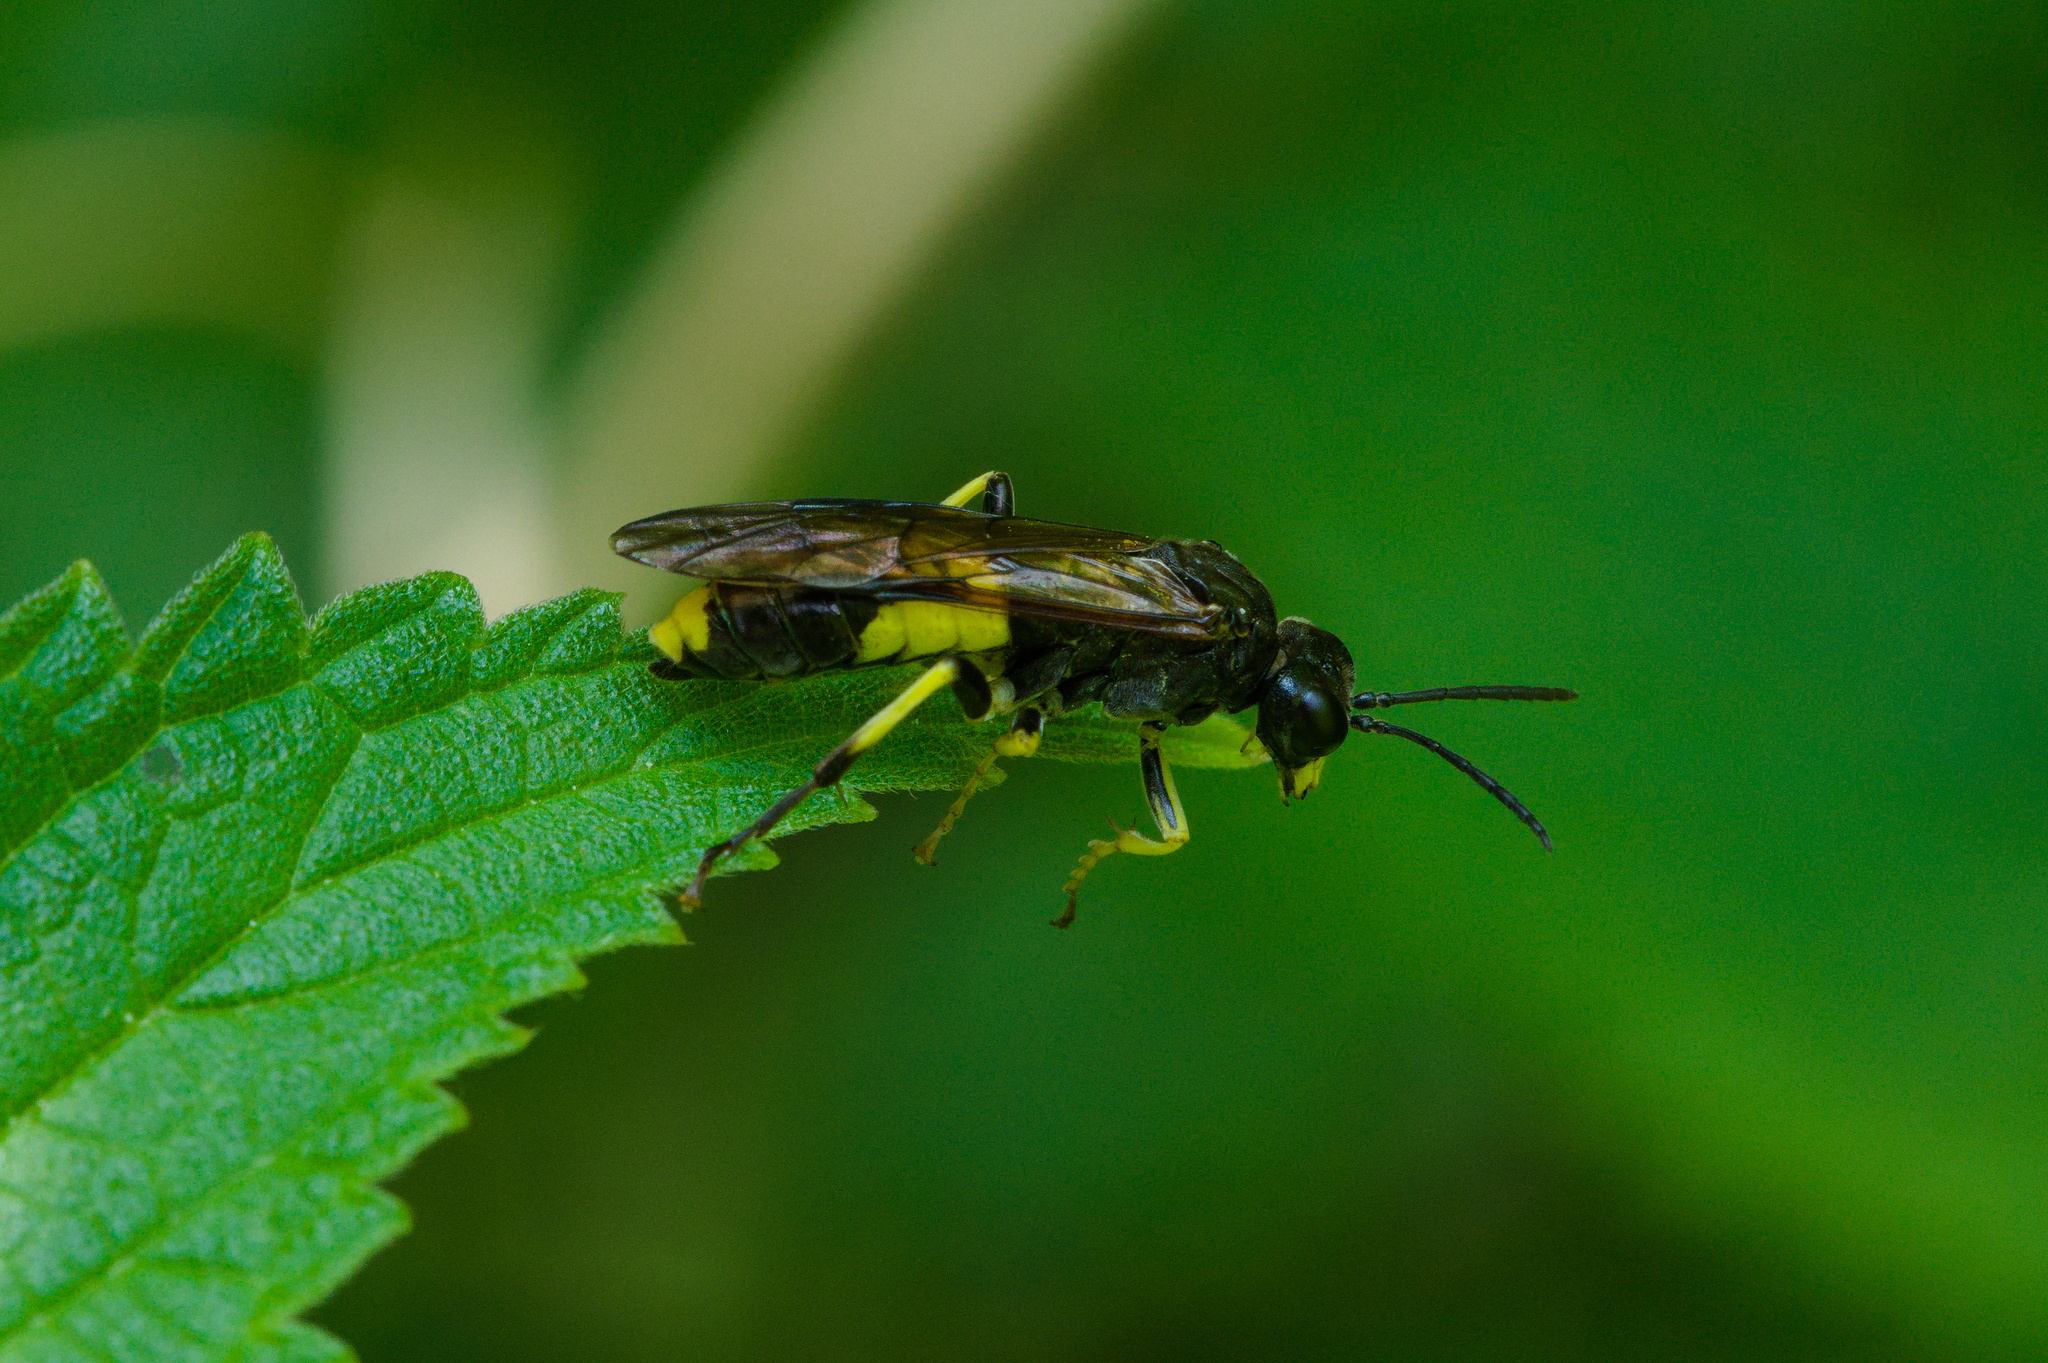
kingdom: Animalia
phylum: Arthropoda
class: Insecta
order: Hymenoptera
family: Tenthredinidae
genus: Tenthredo
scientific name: Tenthredo temula
